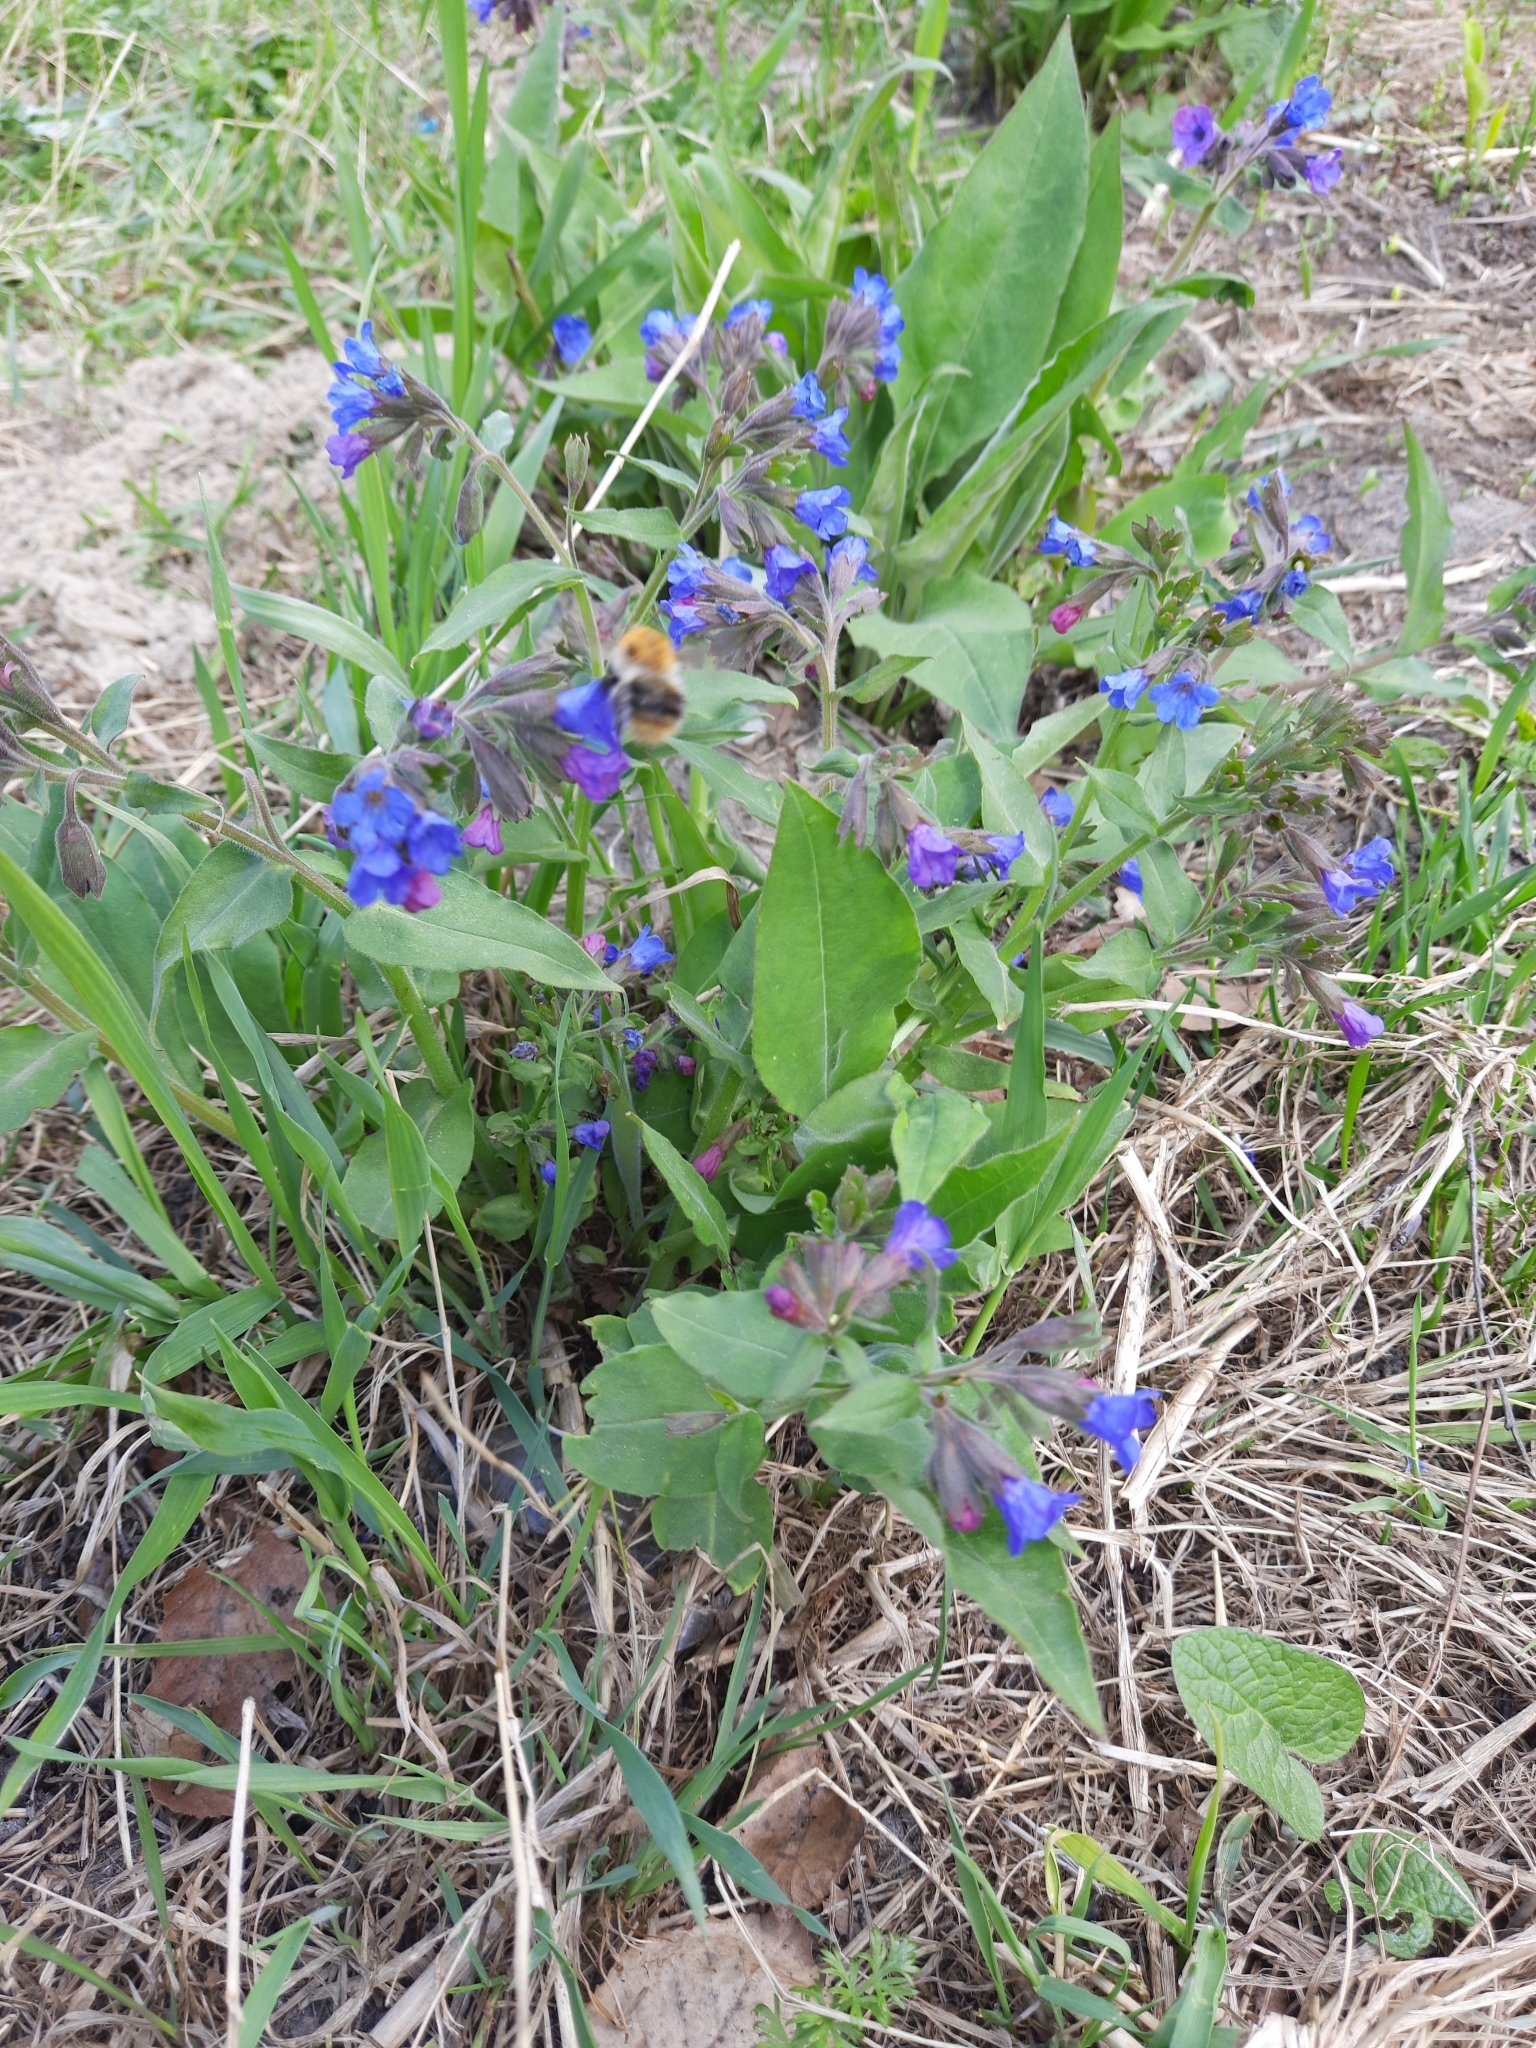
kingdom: Plantae
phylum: Tracheophyta
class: Magnoliopsida
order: Boraginales
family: Boraginaceae
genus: Pulmonaria
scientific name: Pulmonaria mollis
